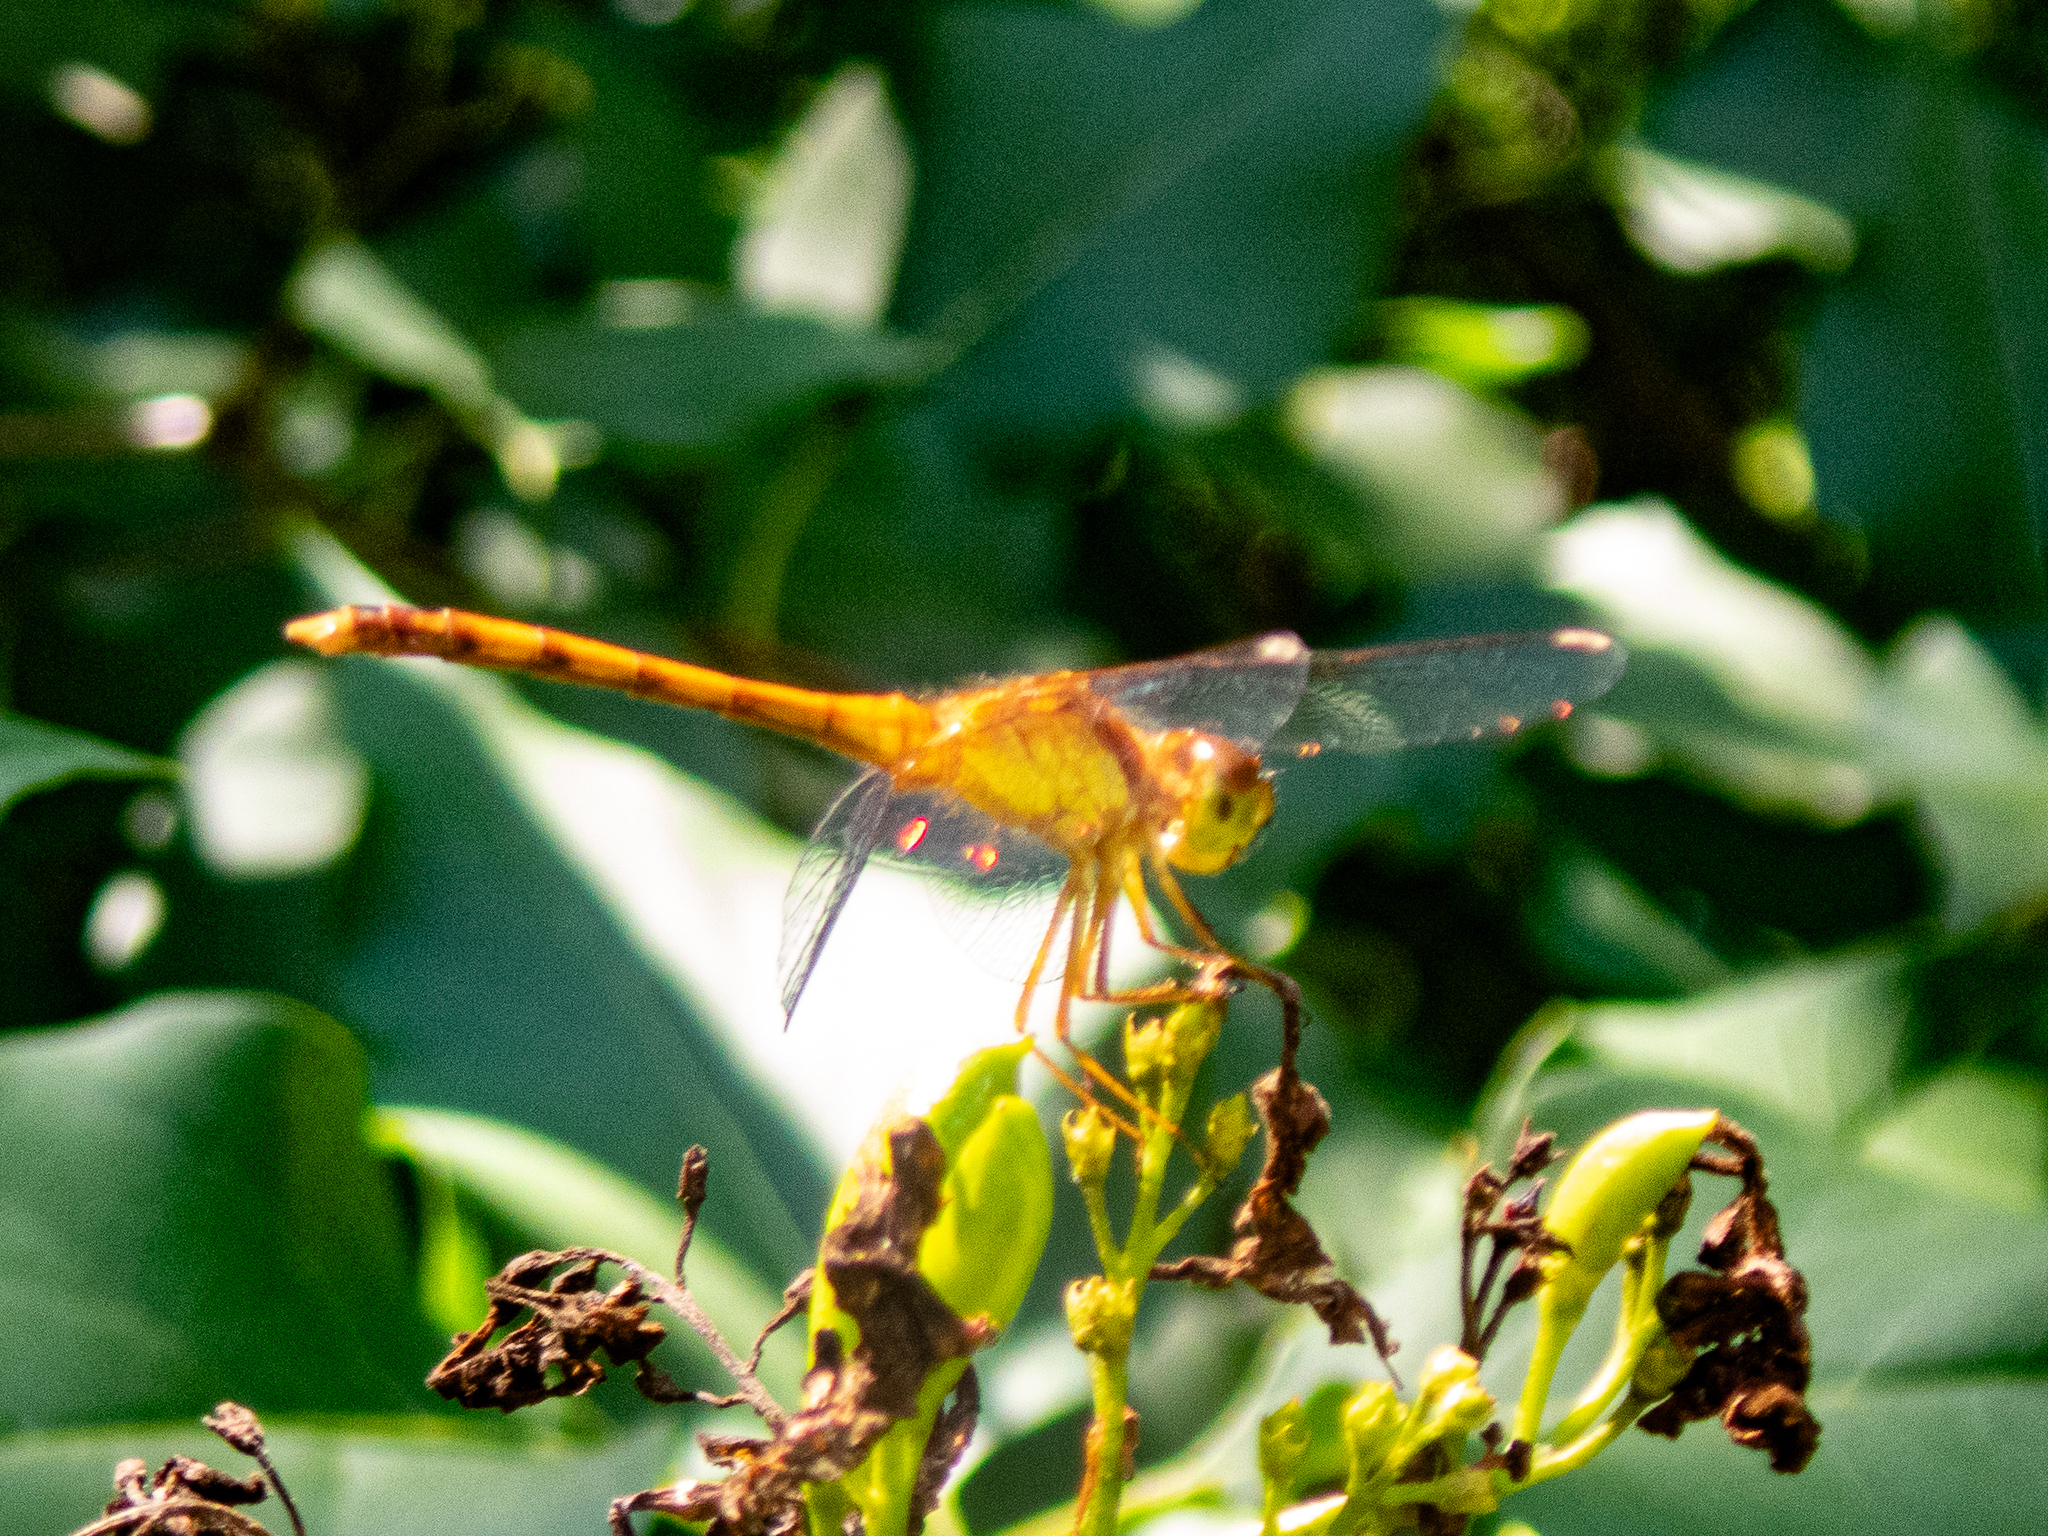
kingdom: Animalia
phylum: Arthropoda
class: Insecta
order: Odonata
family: Libellulidae
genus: Sympetrum
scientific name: Sympetrum vicinum
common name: Autumn meadowhawk
